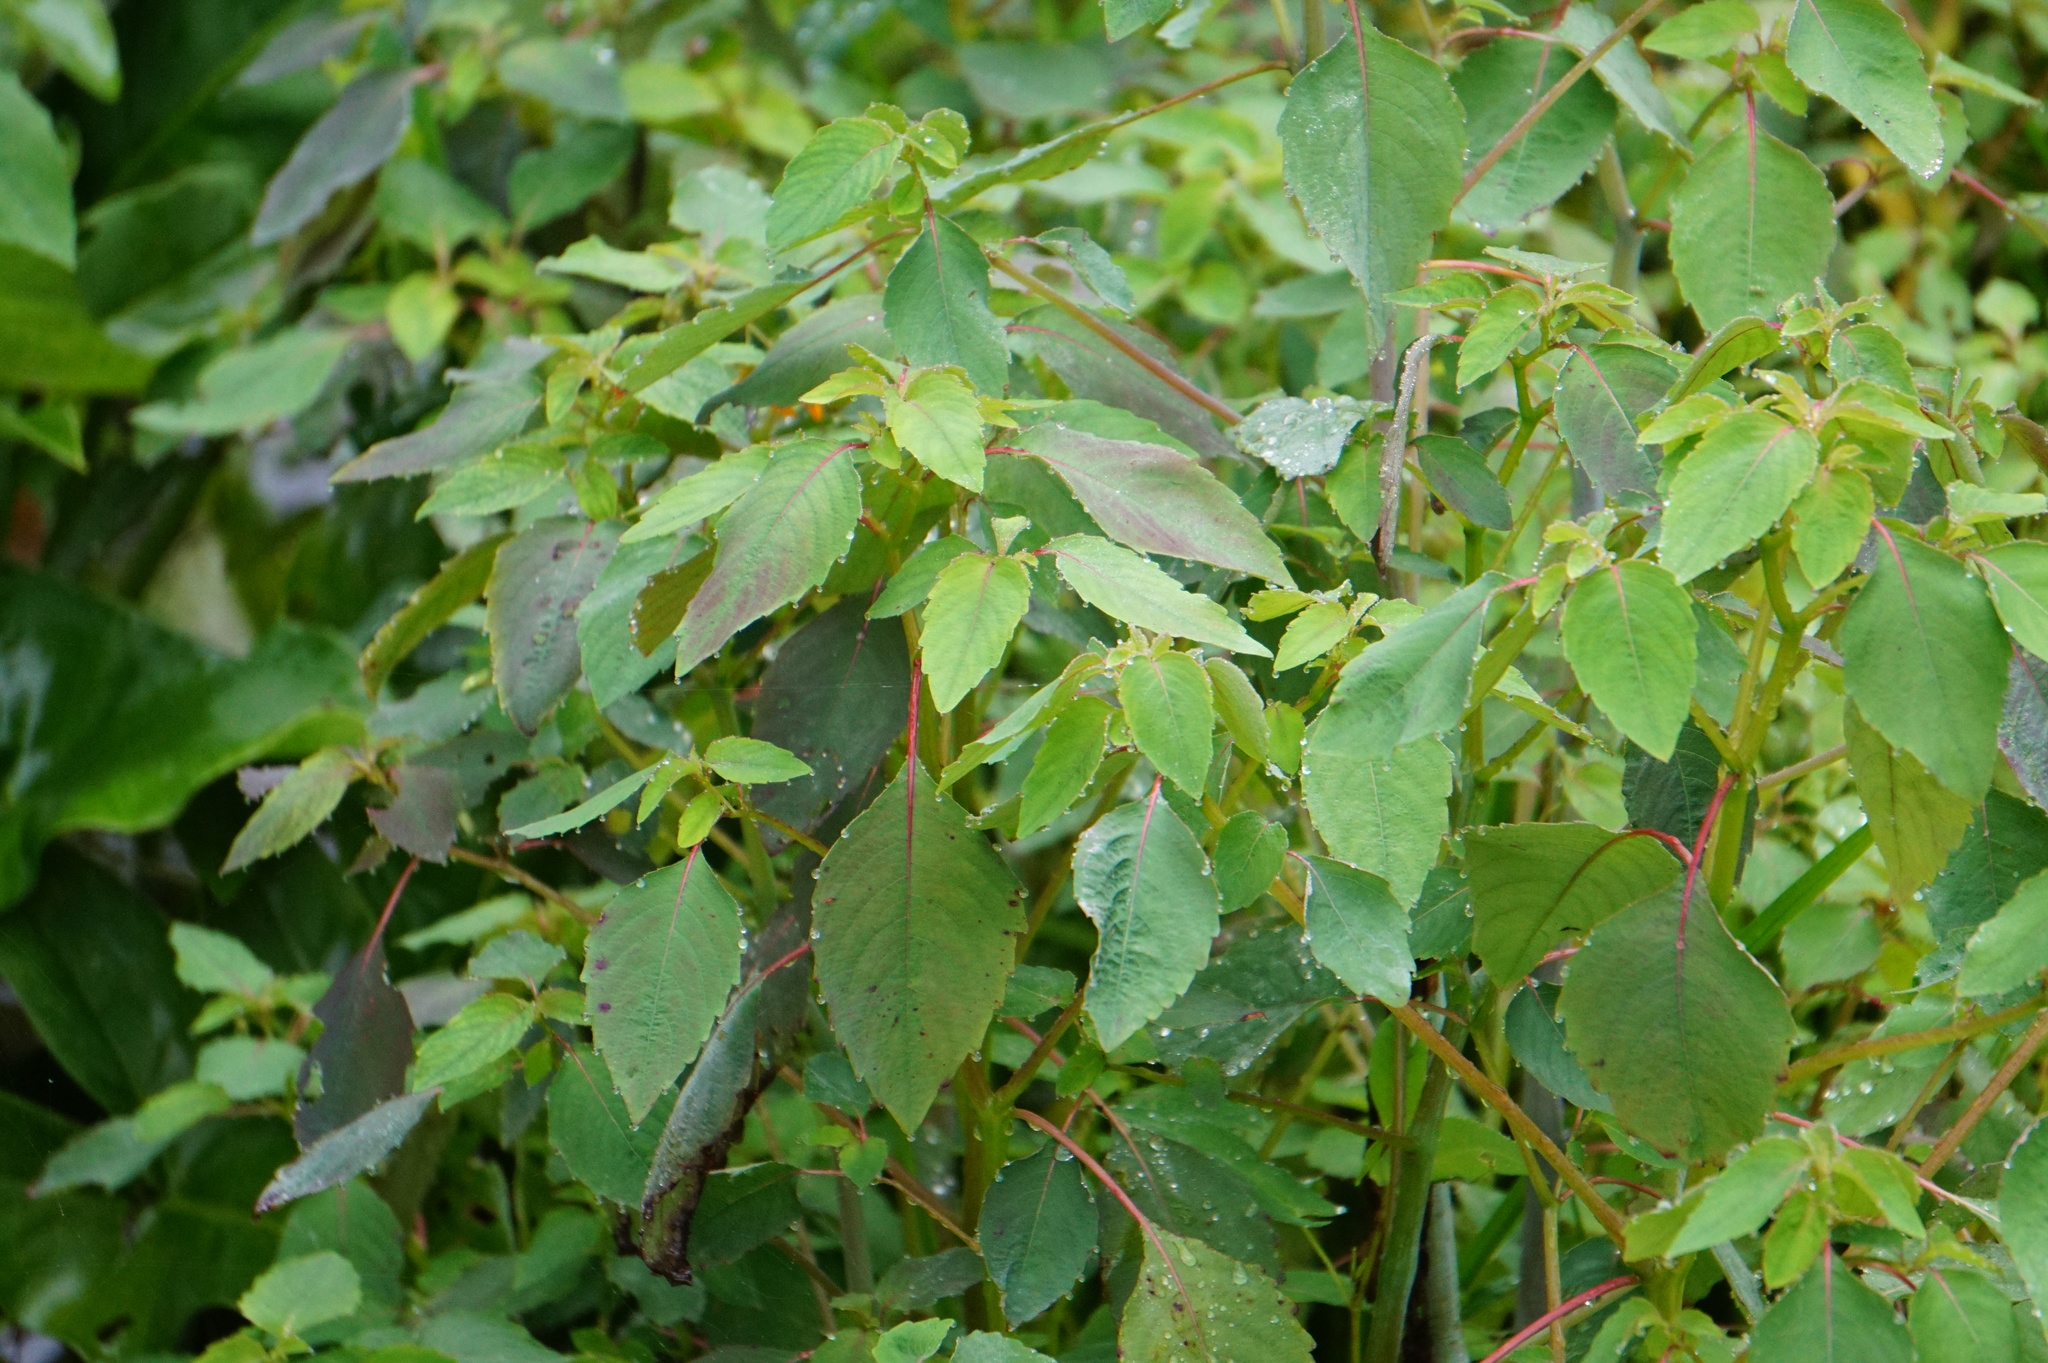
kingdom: Plantae
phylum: Tracheophyta
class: Magnoliopsida
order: Ericales
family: Balsaminaceae
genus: Impatiens
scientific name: Impatiens capensis
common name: Orange balsam
